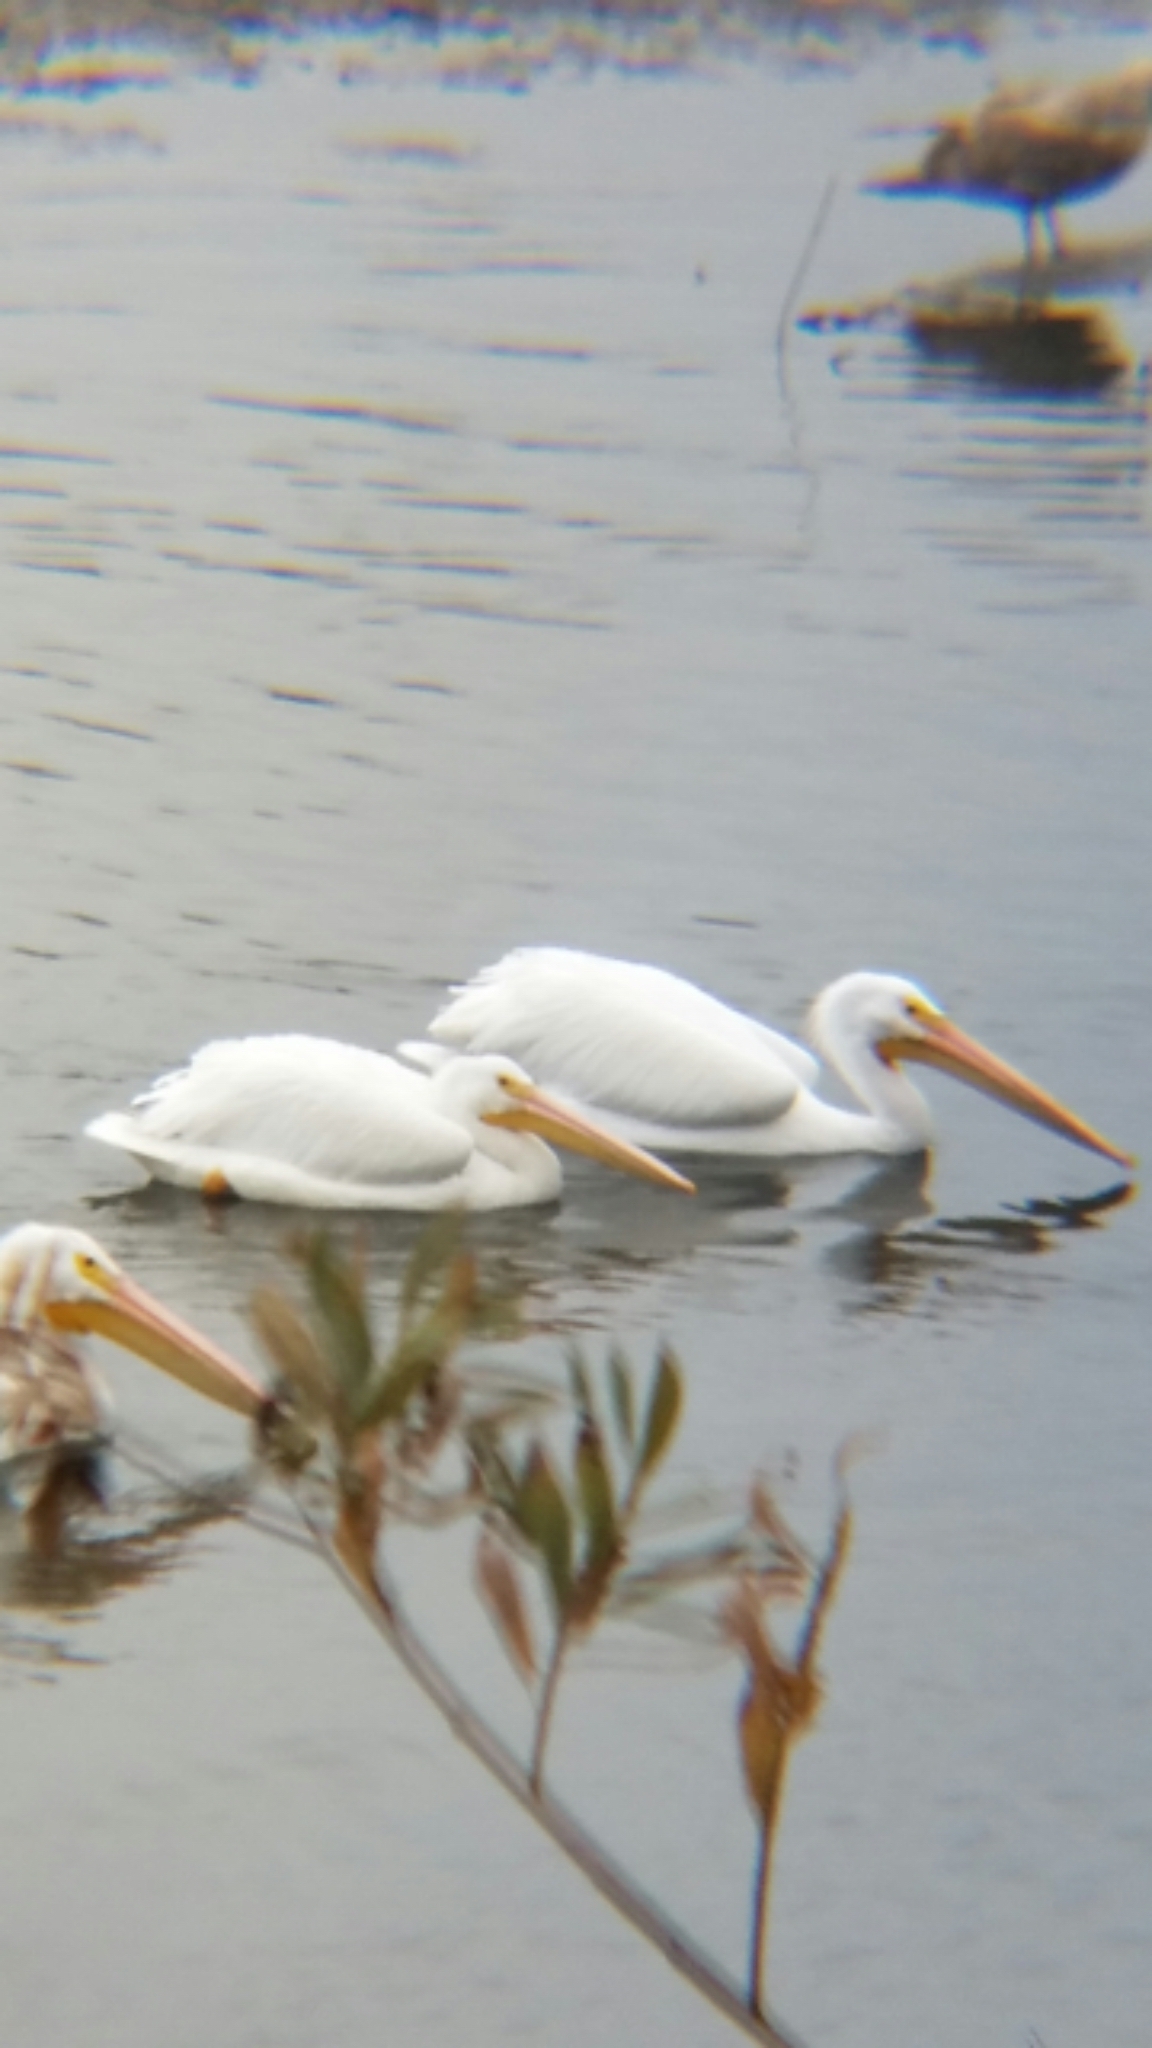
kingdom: Animalia
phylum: Chordata
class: Aves
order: Pelecaniformes
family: Pelecanidae
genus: Pelecanus
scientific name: Pelecanus erythrorhynchos
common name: American white pelican
